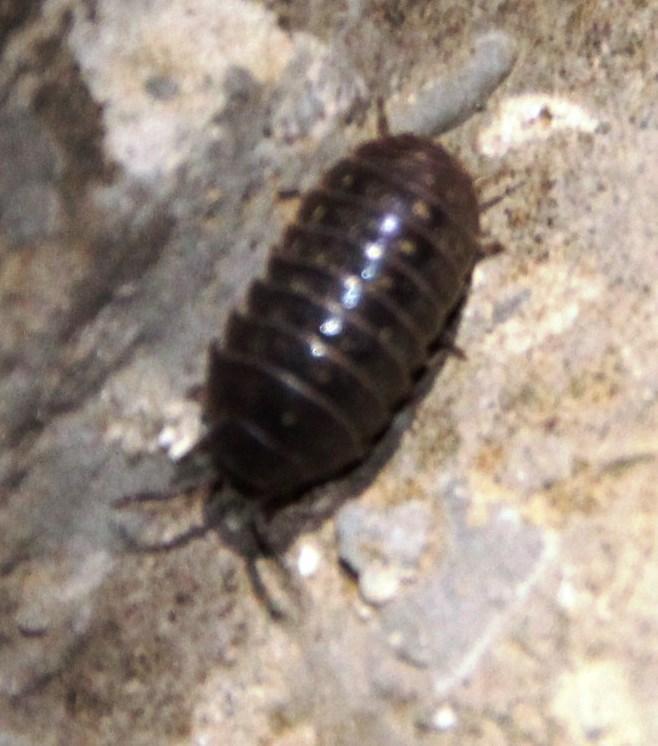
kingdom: Animalia
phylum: Arthropoda
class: Malacostraca
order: Isopoda
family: Armadillidiidae
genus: Armadillidium
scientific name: Armadillidium vulgare
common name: Common pill woodlouse
